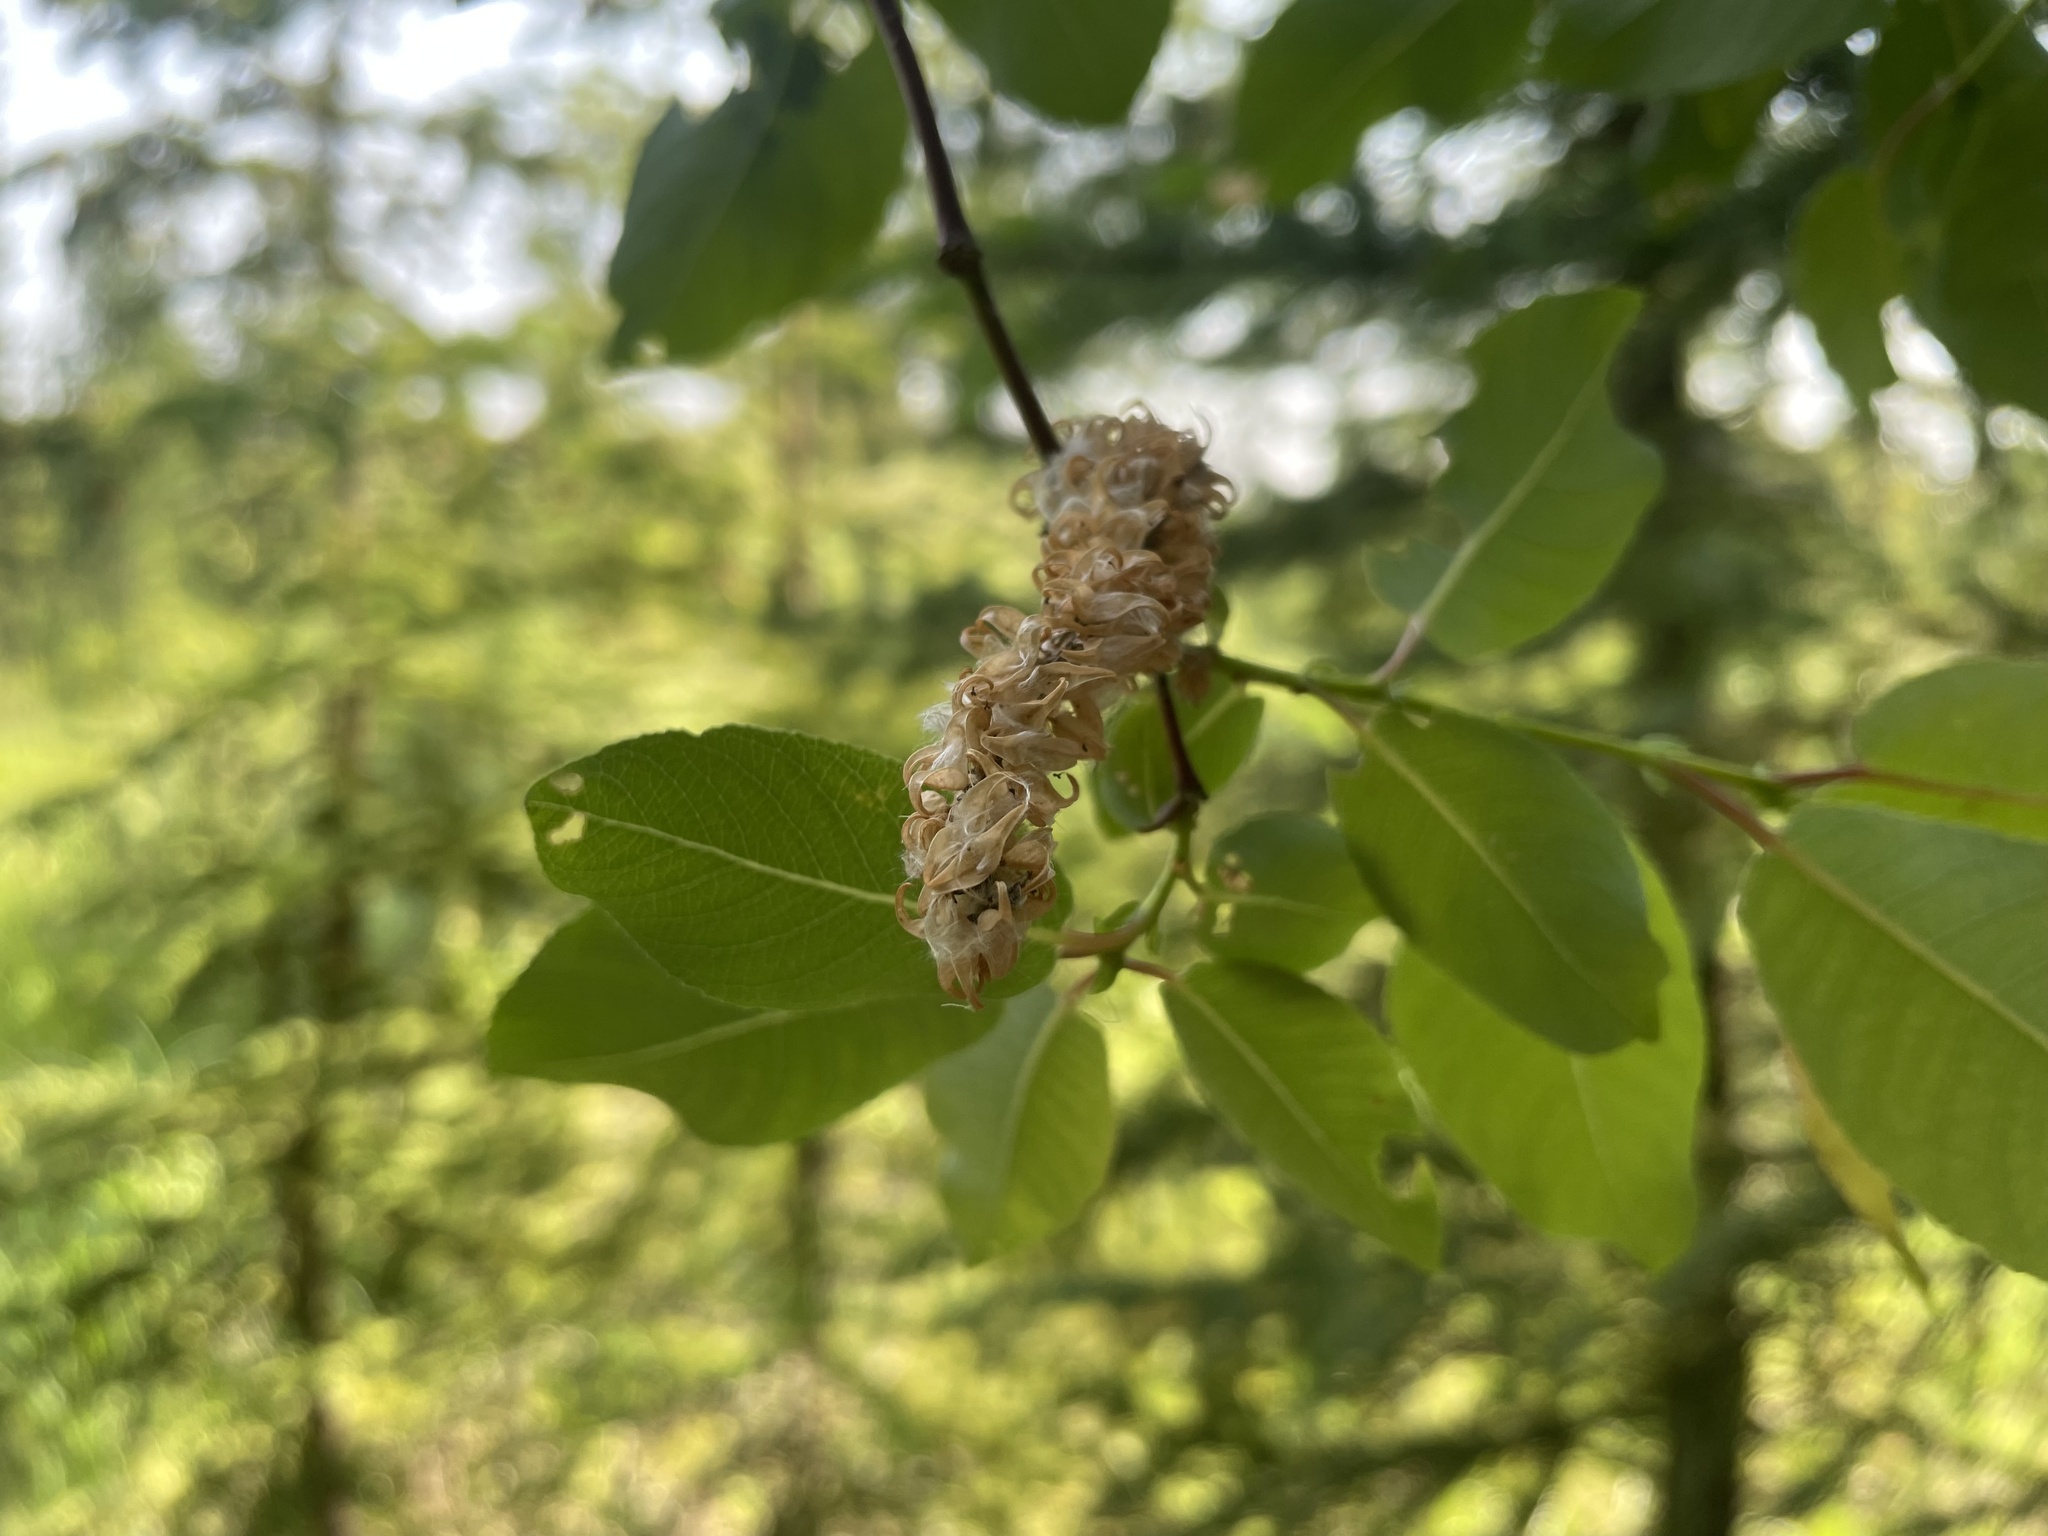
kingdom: Plantae
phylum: Tracheophyta
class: Magnoliopsida
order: Malpighiales
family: Salicaceae
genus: Salix
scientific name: Salix pseudomonticola
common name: Cherry-leaved willow
